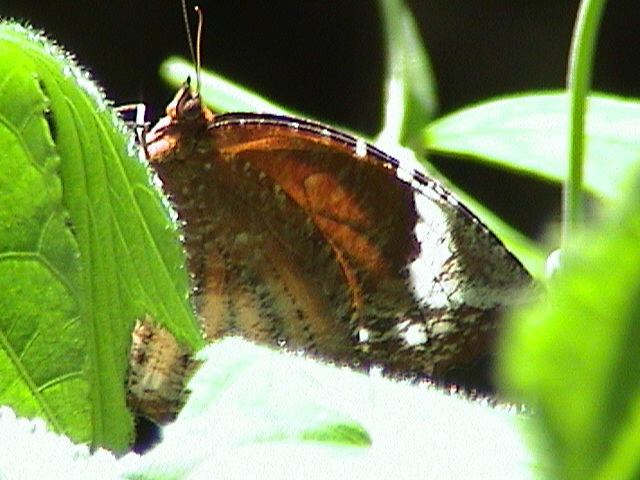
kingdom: Animalia
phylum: Arthropoda
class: Insecta
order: Lepidoptera
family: Nymphalidae
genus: Elymnias
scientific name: Elymnias caudata
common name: Tailed palmfly
